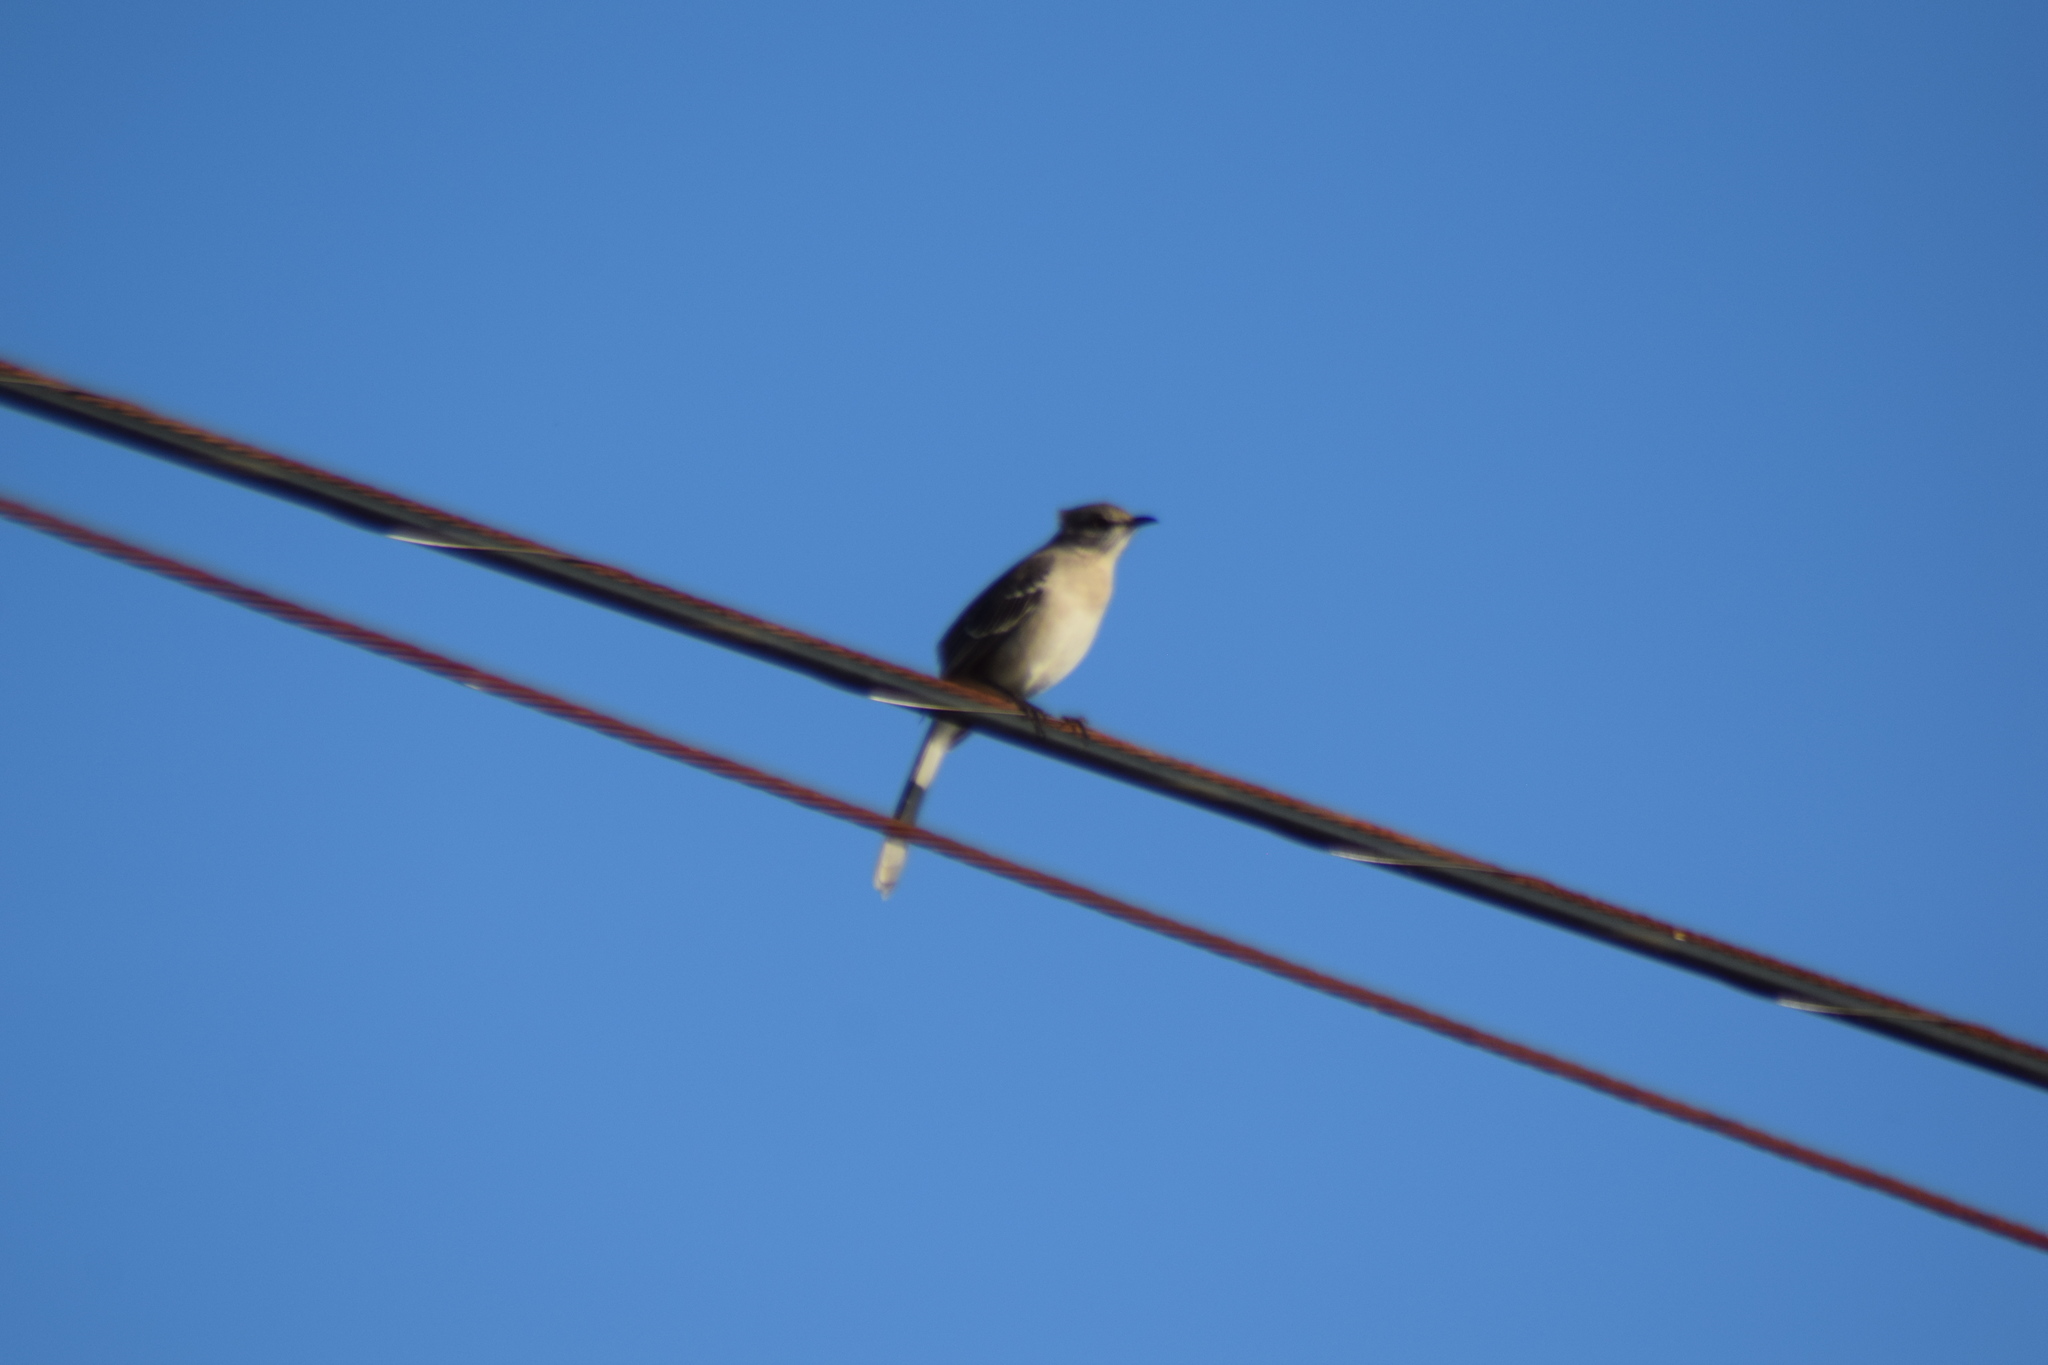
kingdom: Animalia
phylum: Chordata
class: Aves
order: Passeriformes
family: Mimidae
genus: Mimus
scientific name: Mimus polyglottos
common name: Northern mockingbird
